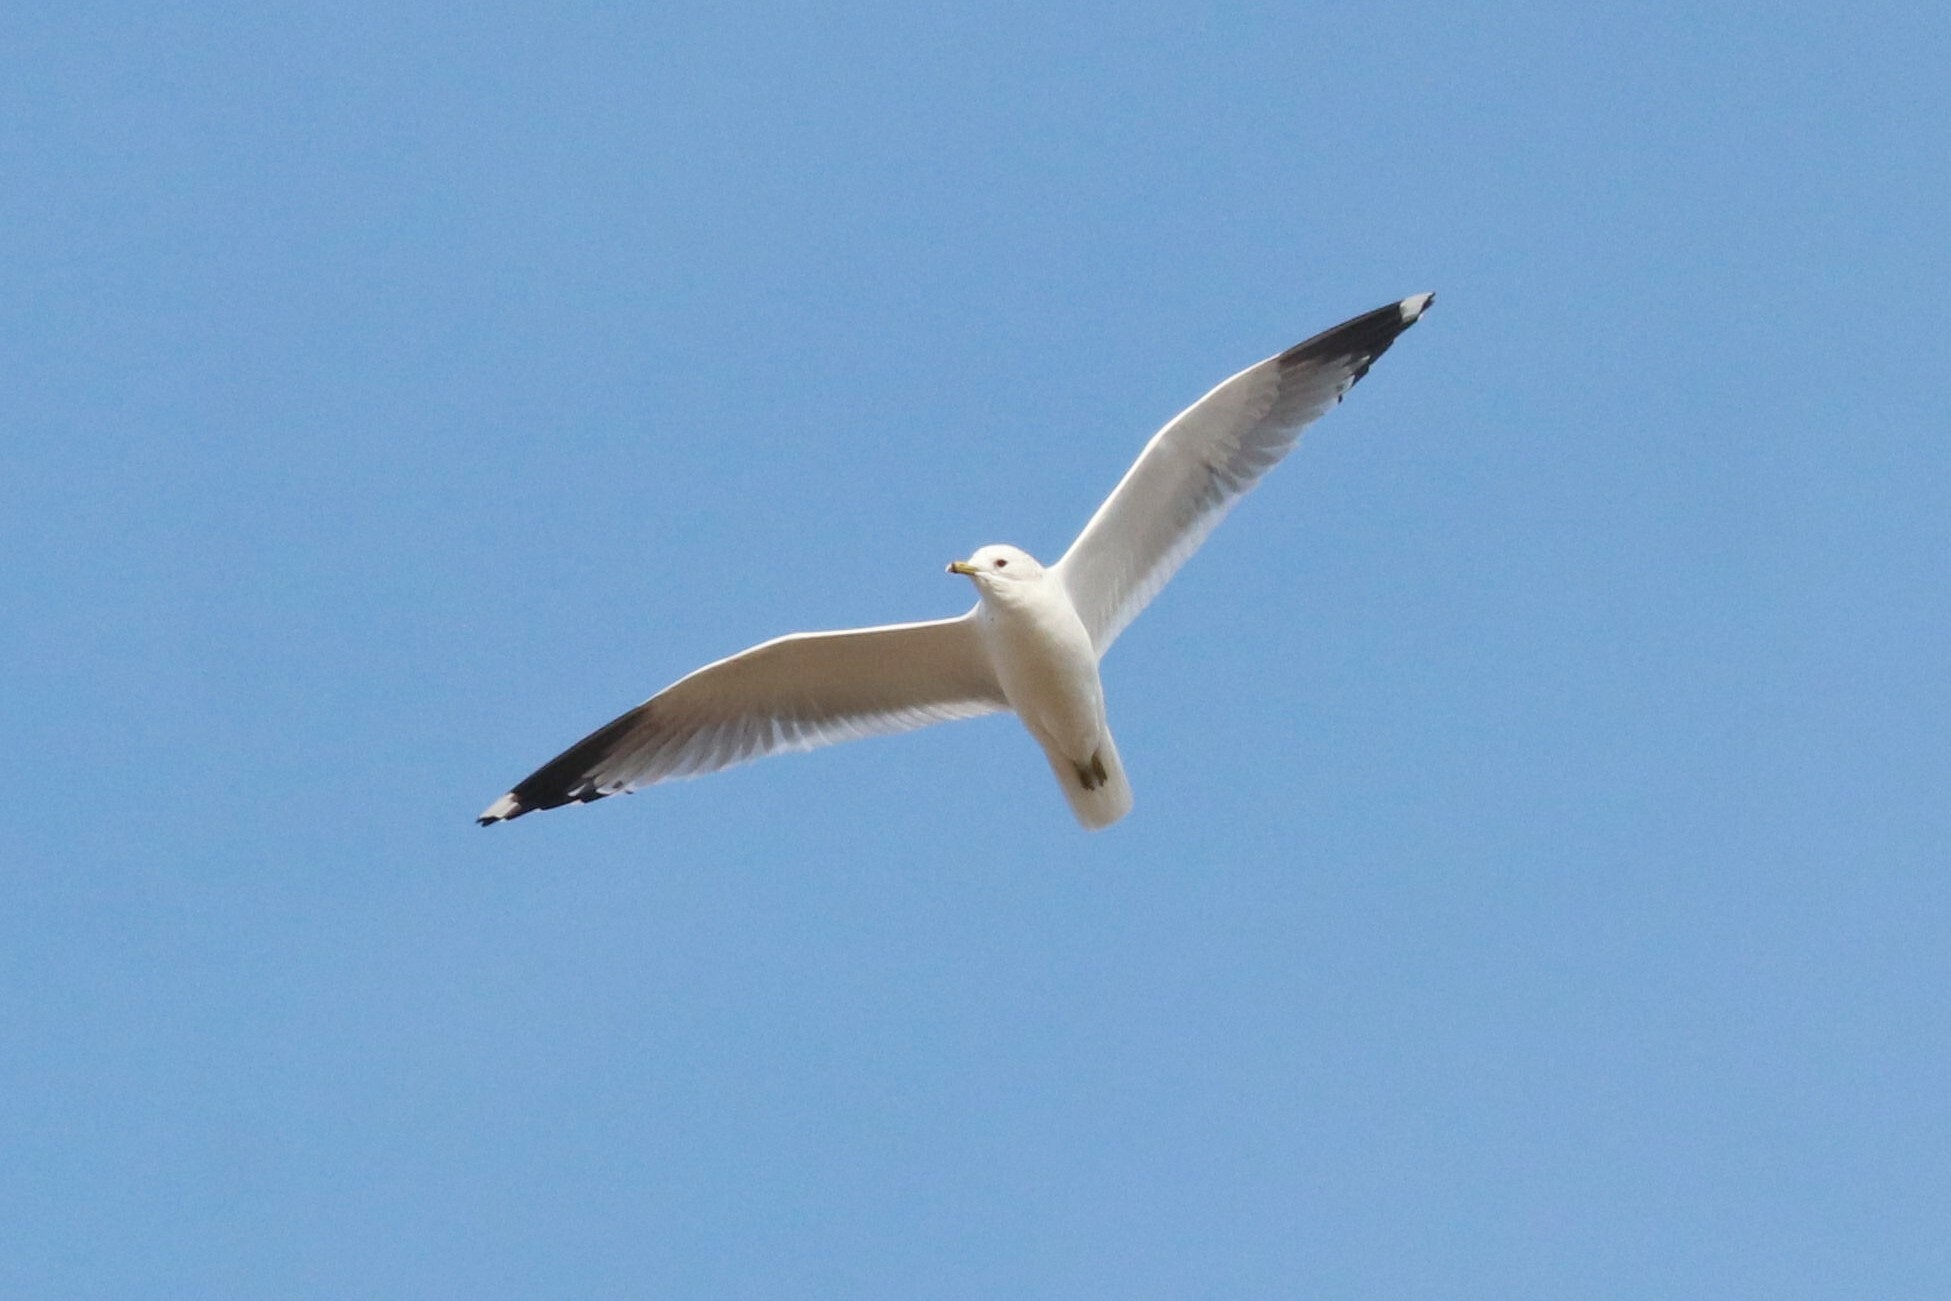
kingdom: Animalia
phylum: Chordata
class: Aves
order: Charadriiformes
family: Laridae
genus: Larus
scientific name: Larus canus
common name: Mew gull
